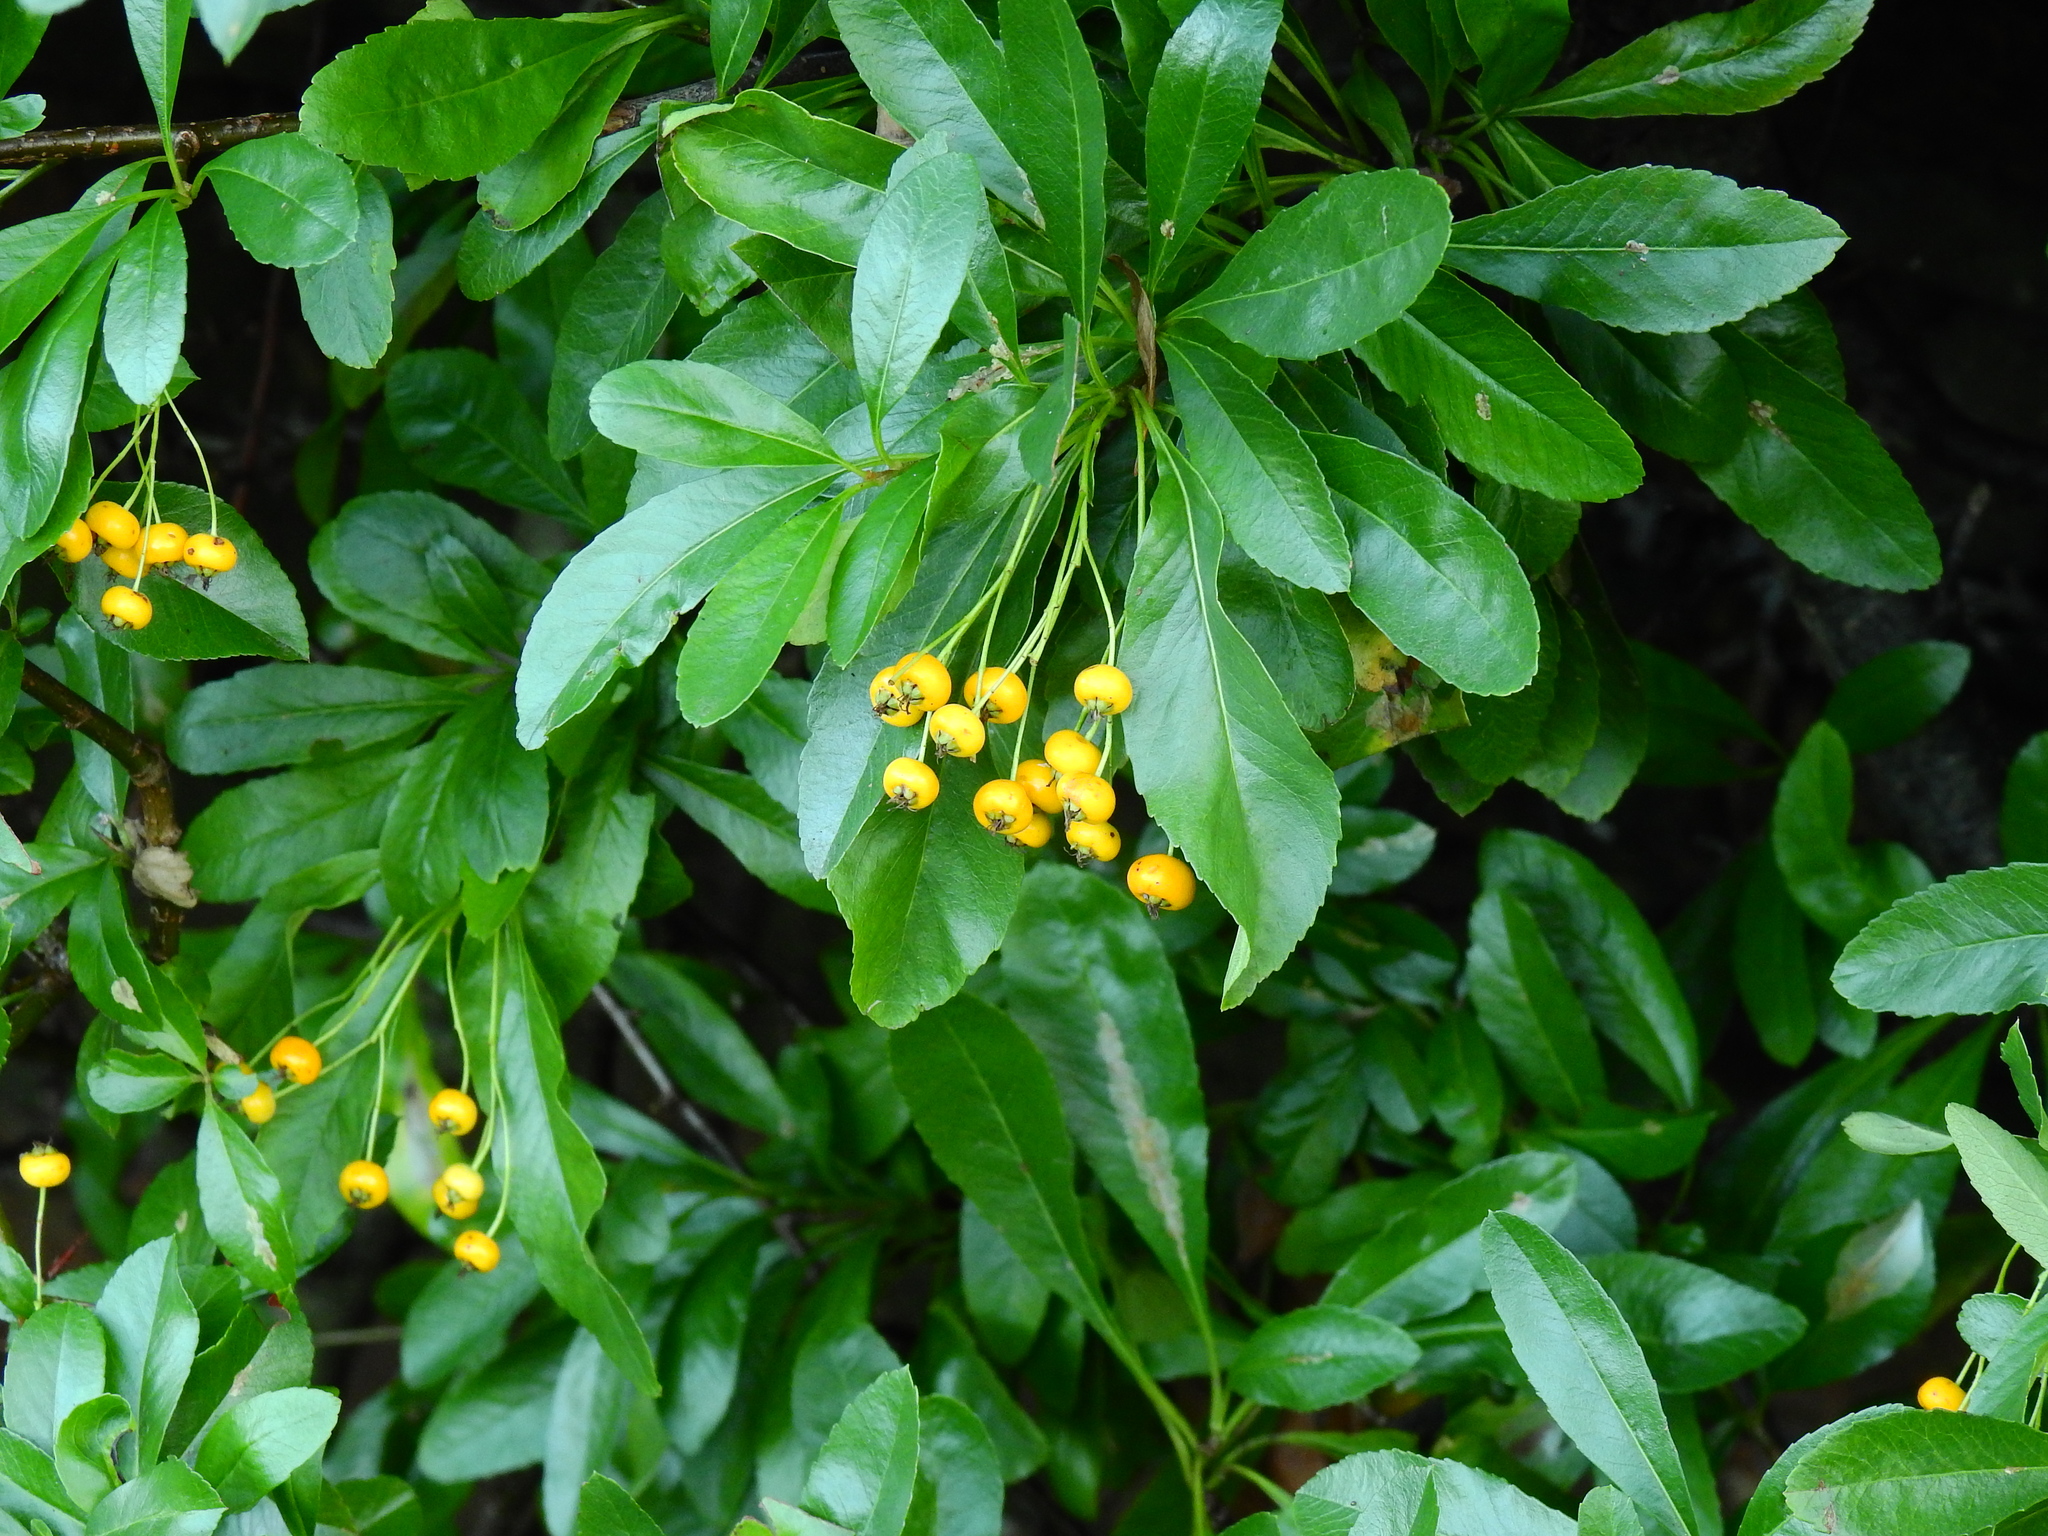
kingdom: Plantae
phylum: Tracheophyta
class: Magnoliopsida
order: Rosales
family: Rosaceae
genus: Pyracantha
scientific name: Pyracantha coccinea
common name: Firethorn
